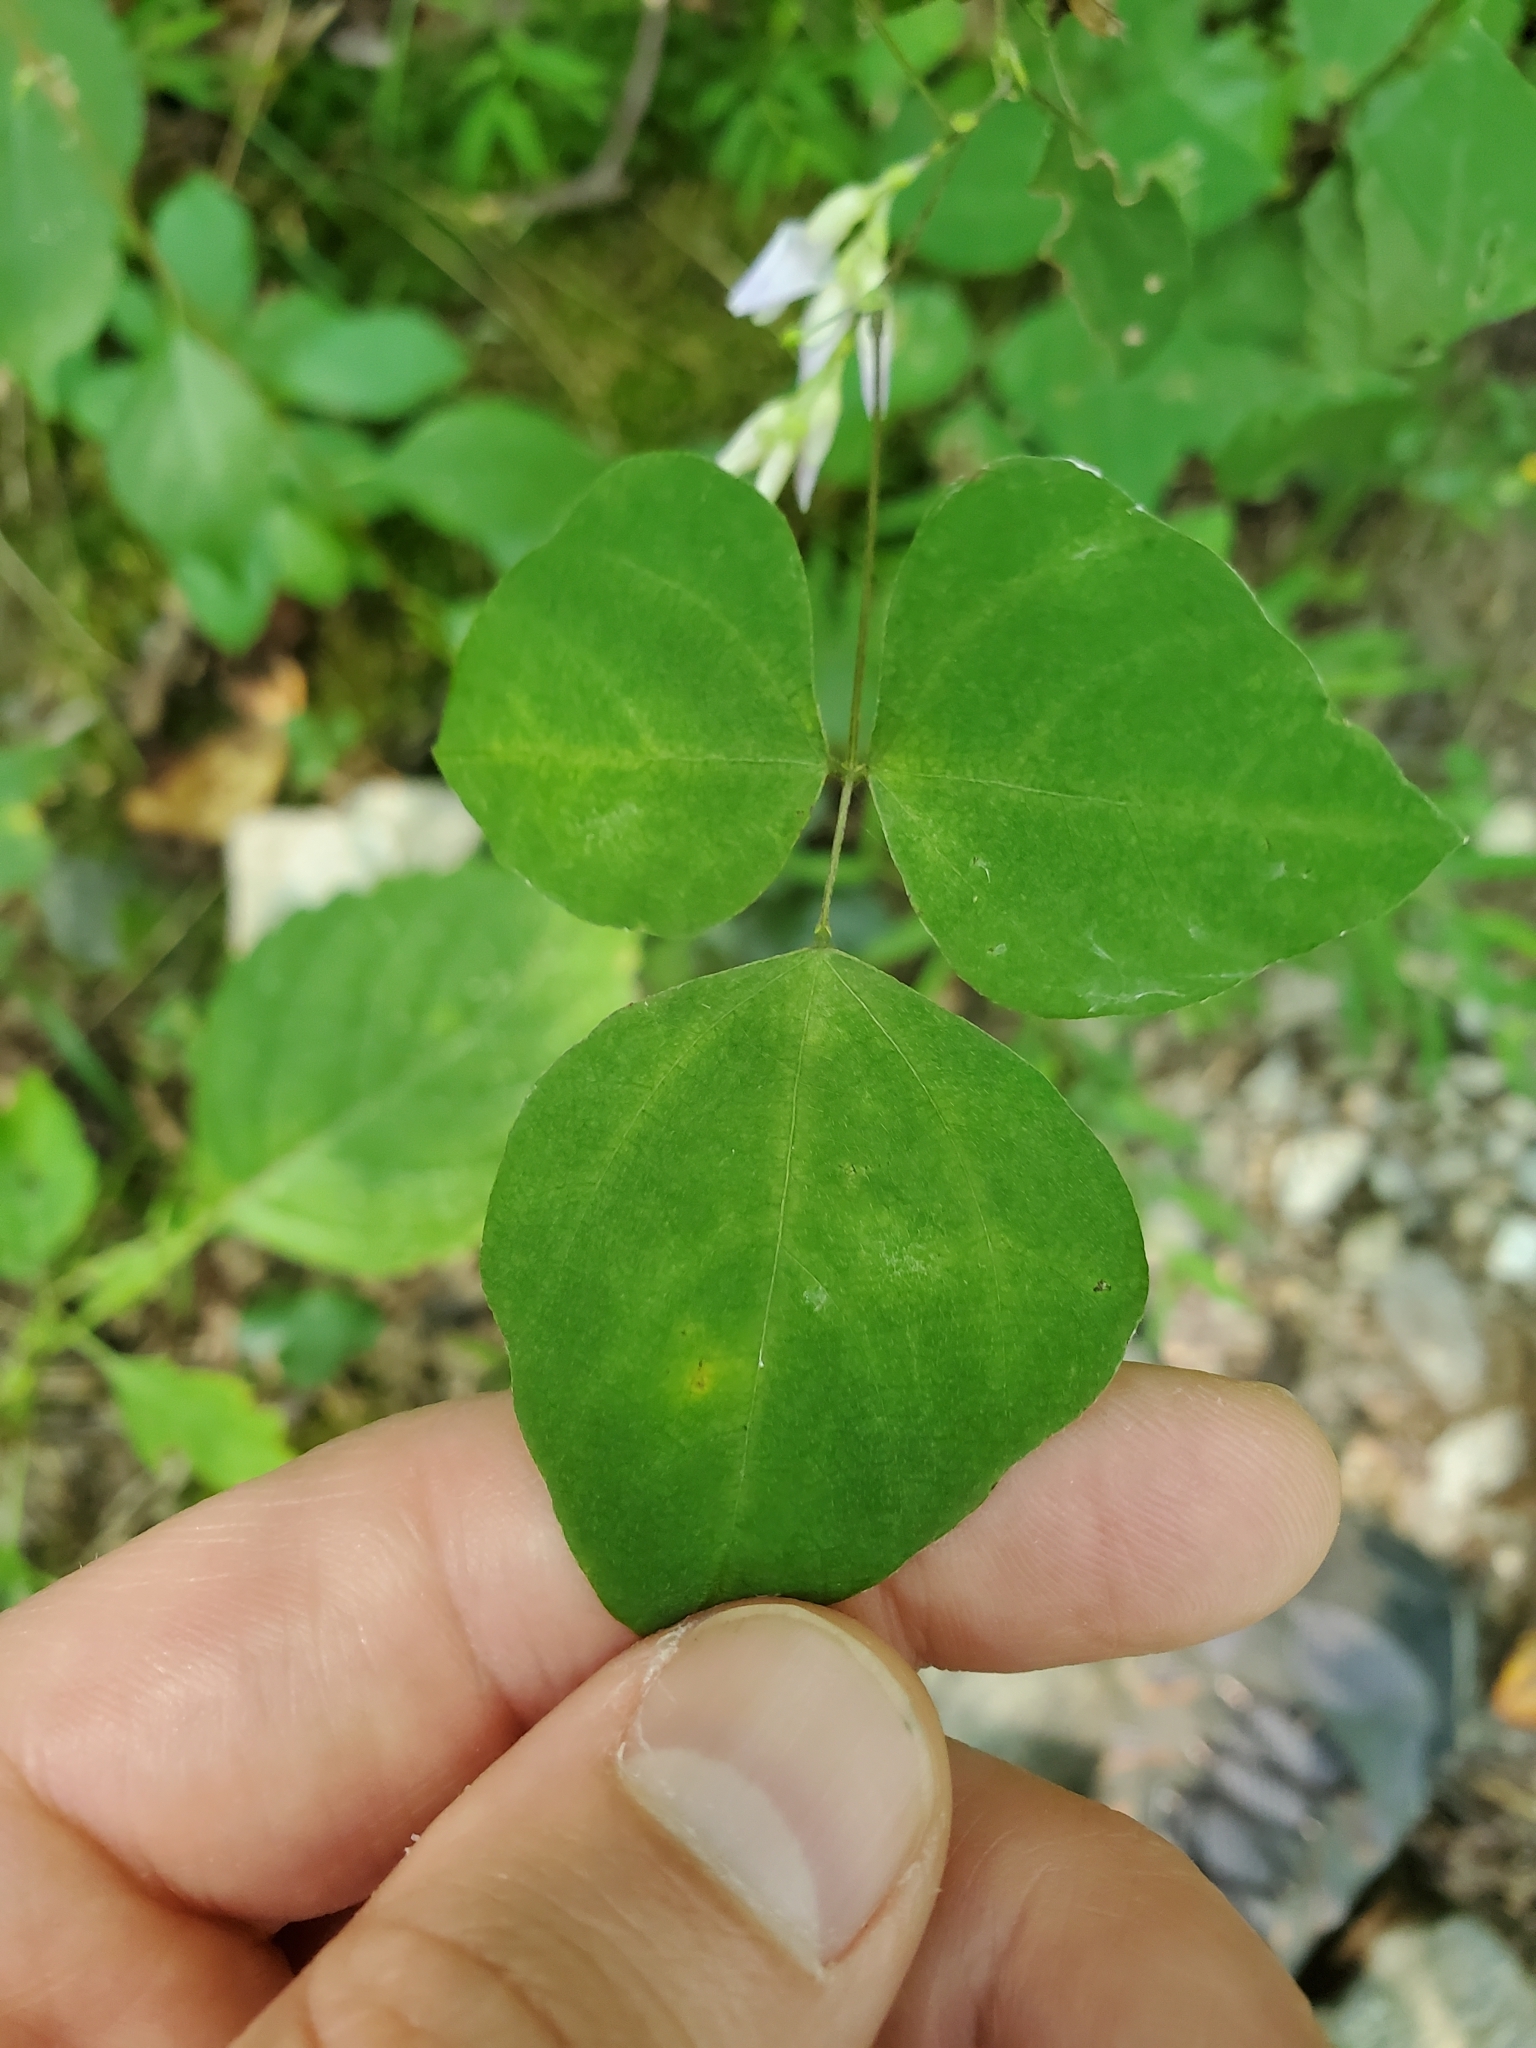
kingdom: Plantae
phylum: Tracheophyta
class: Magnoliopsida
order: Fabales
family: Fabaceae
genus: Amphicarpaea
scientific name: Amphicarpaea bracteata
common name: American hog peanut
